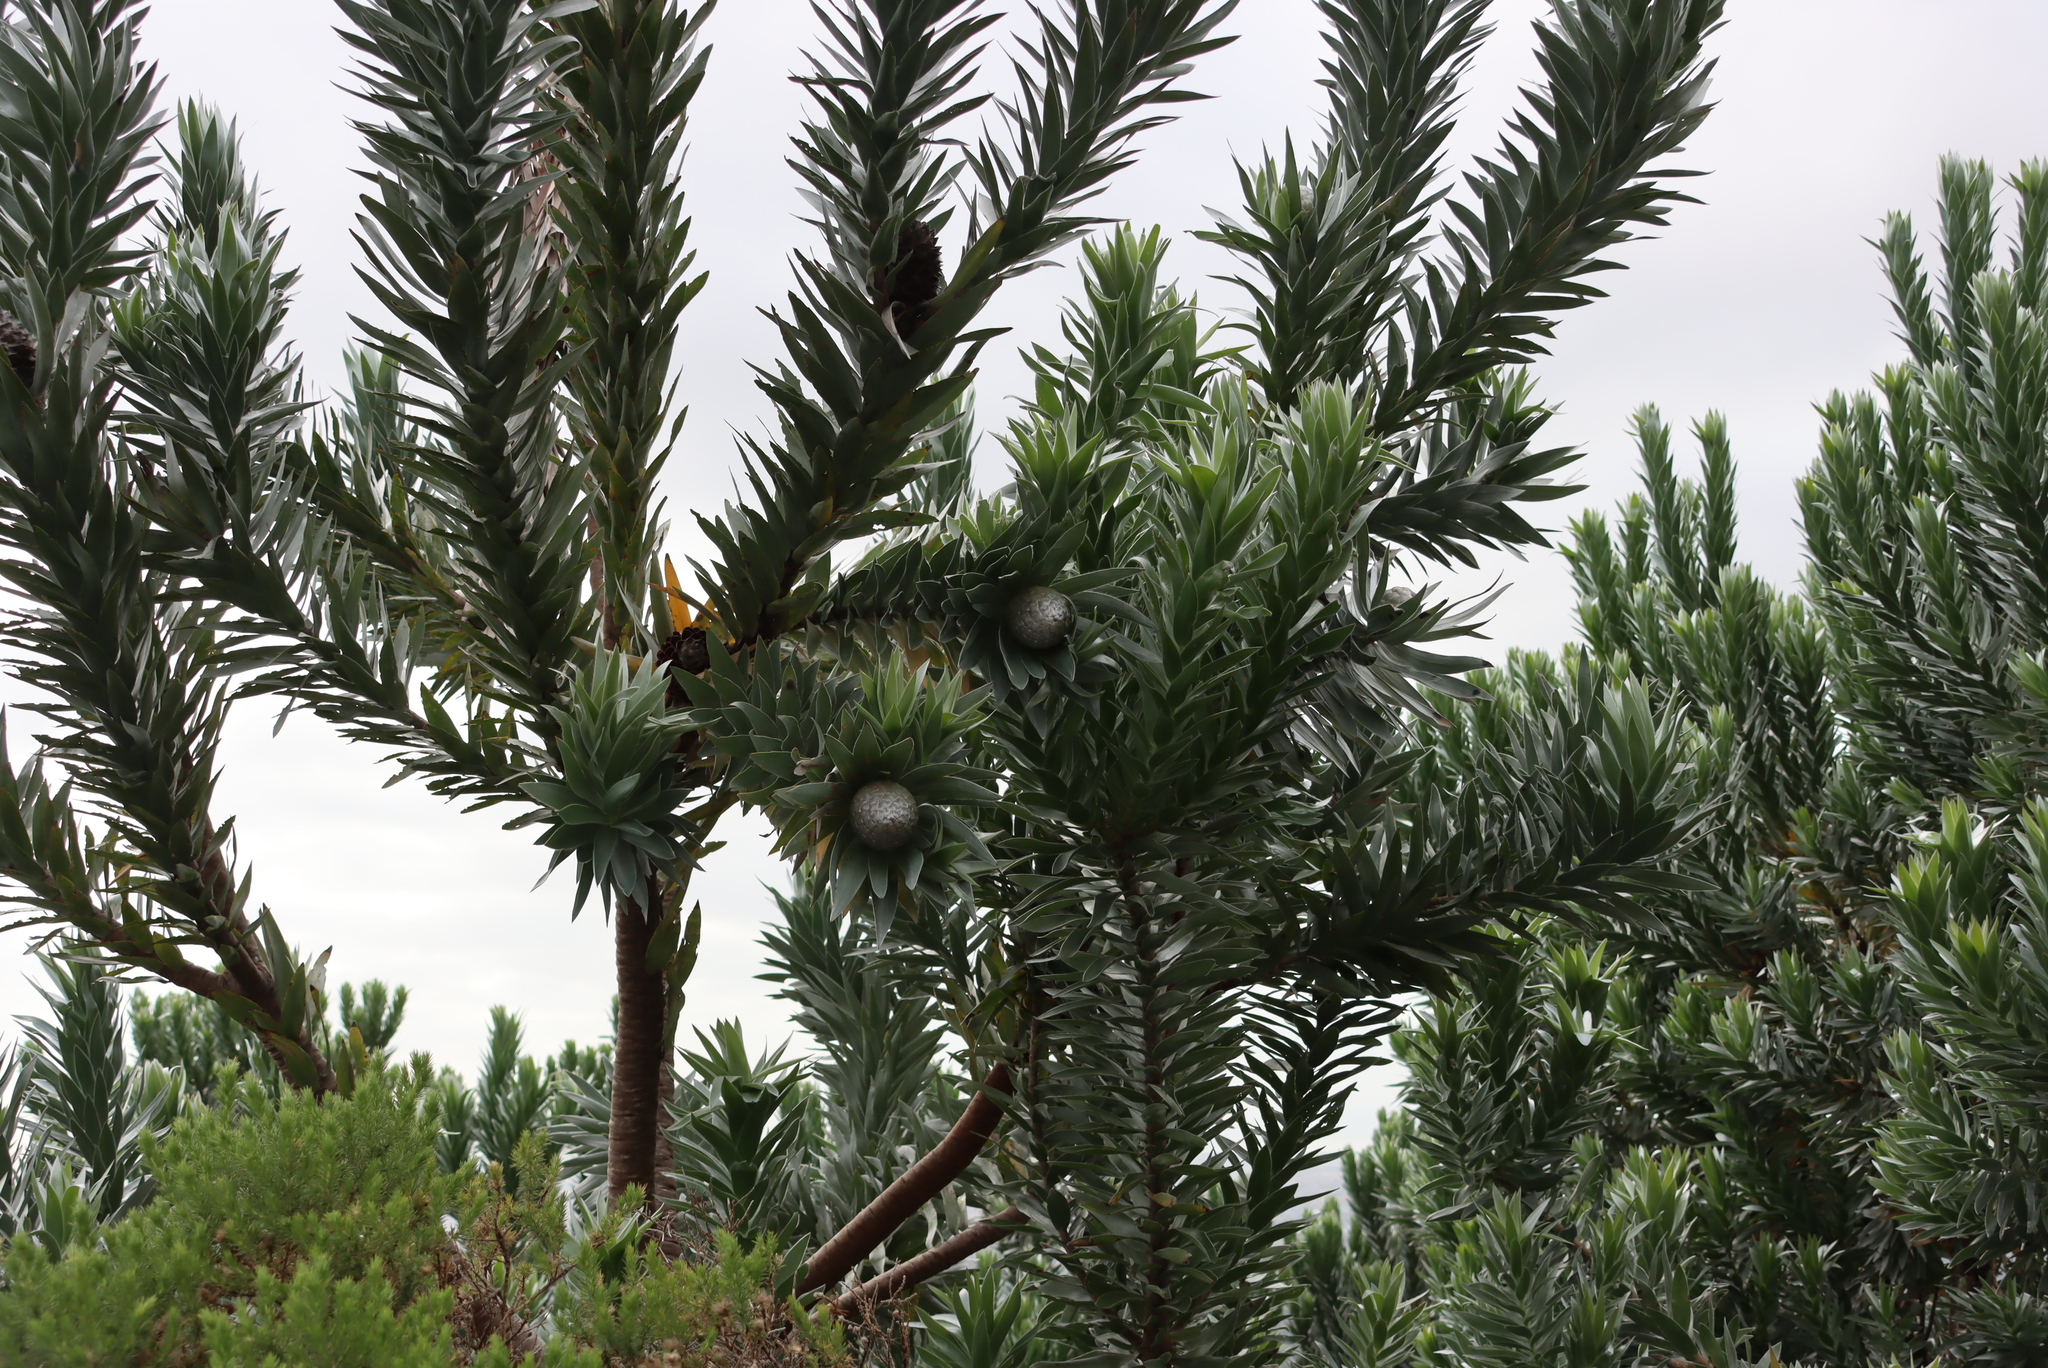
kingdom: Plantae
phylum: Tracheophyta
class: Magnoliopsida
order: Proteales
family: Proteaceae
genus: Leucadendron
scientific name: Leucadendron argenteum
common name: Cape silver tree
